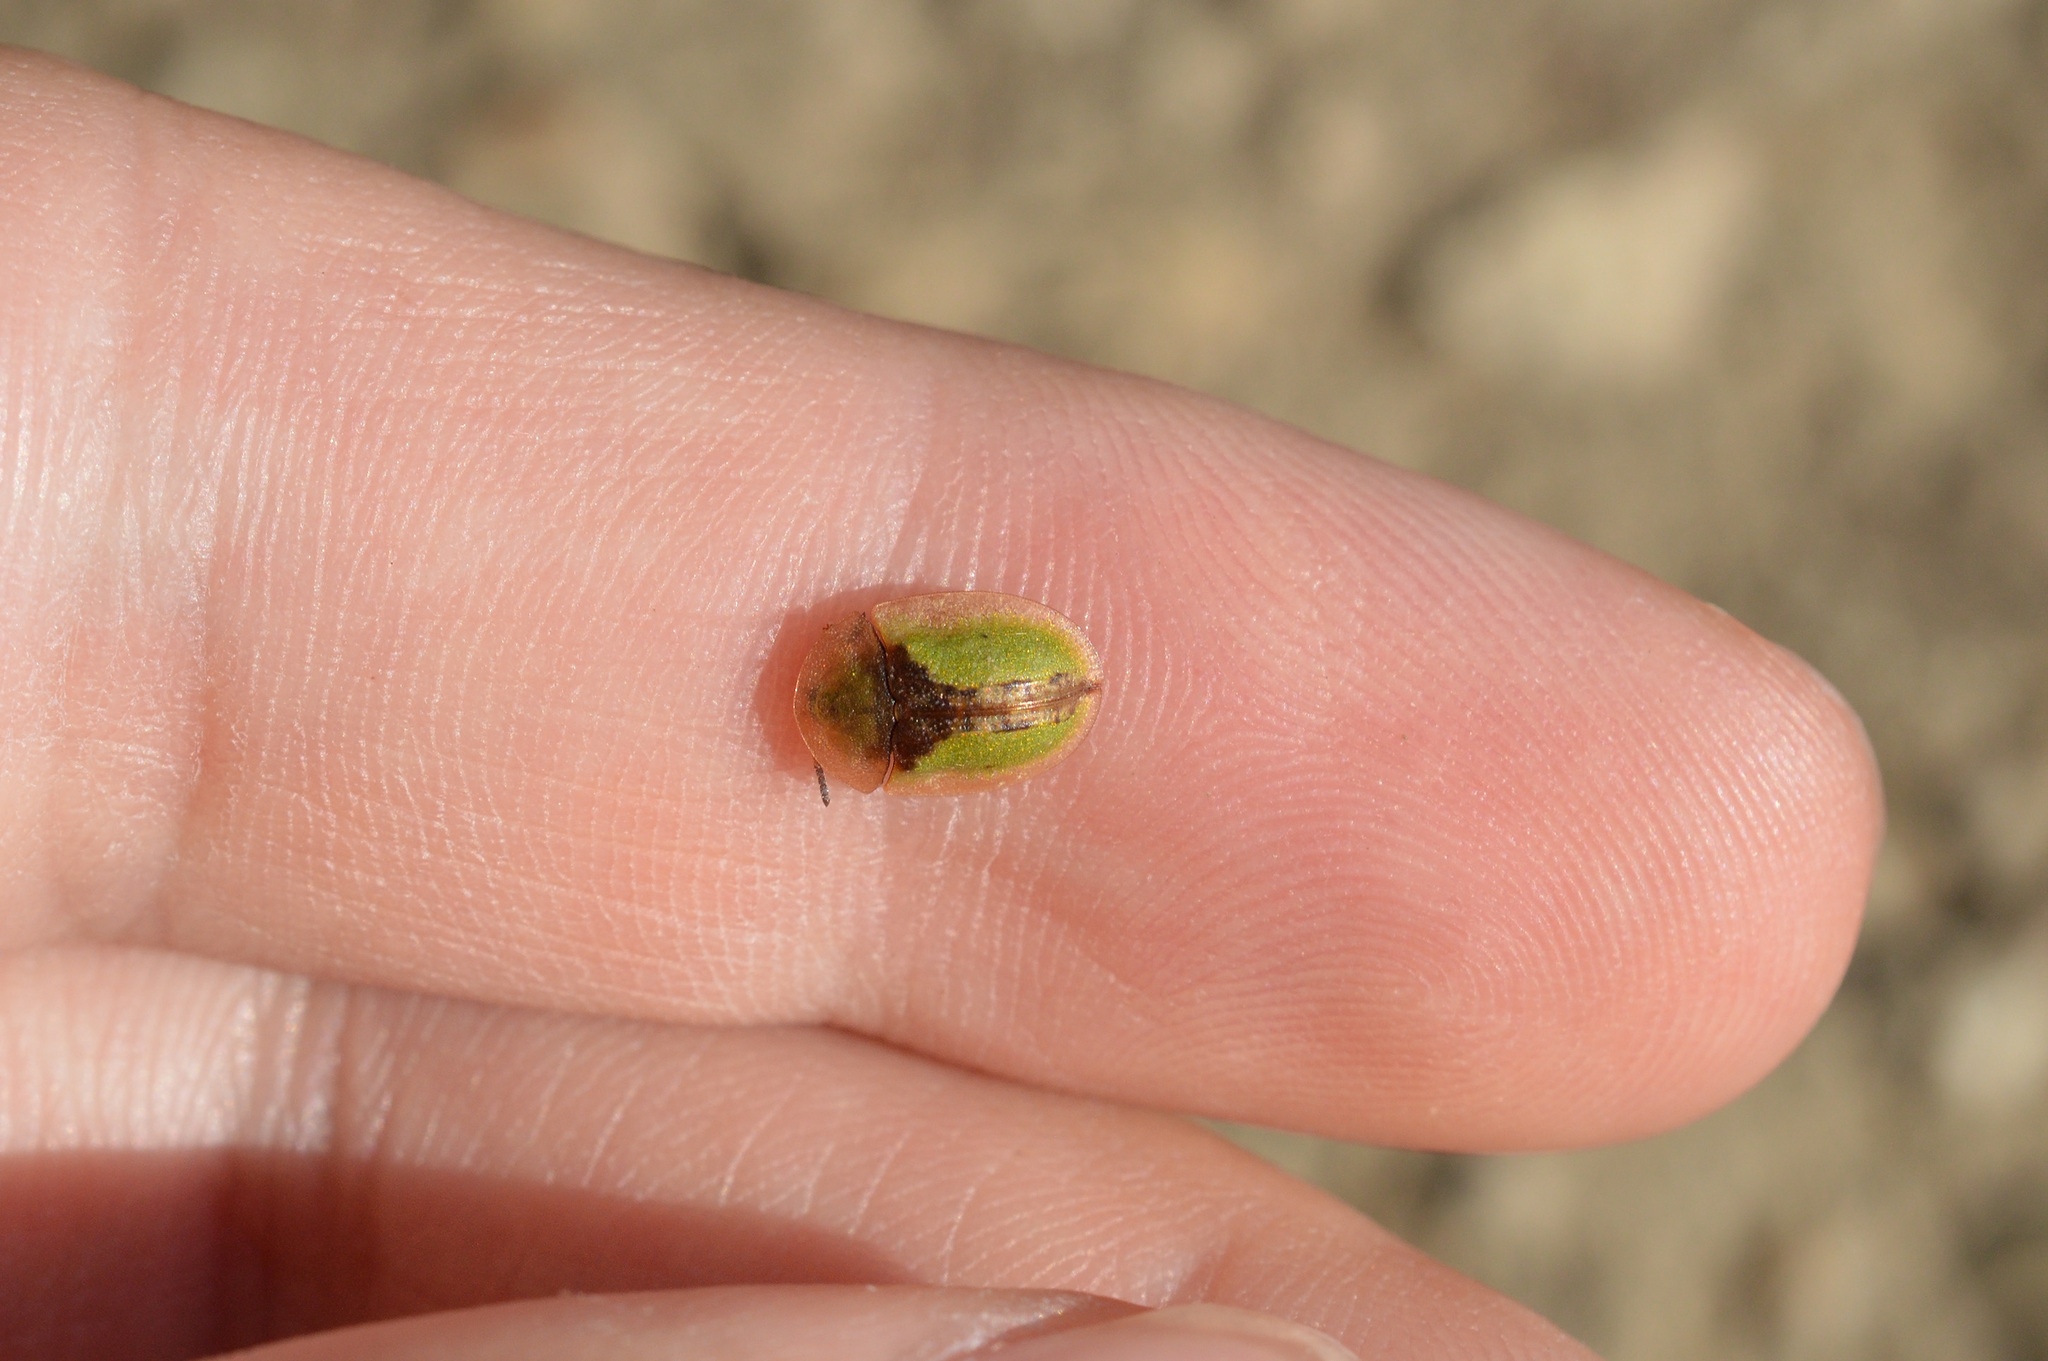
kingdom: Animalia
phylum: Arthropoda
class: Insecta
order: Coleoptera
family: Chrysomelidae
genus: Cassida
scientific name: Cassida vibex
